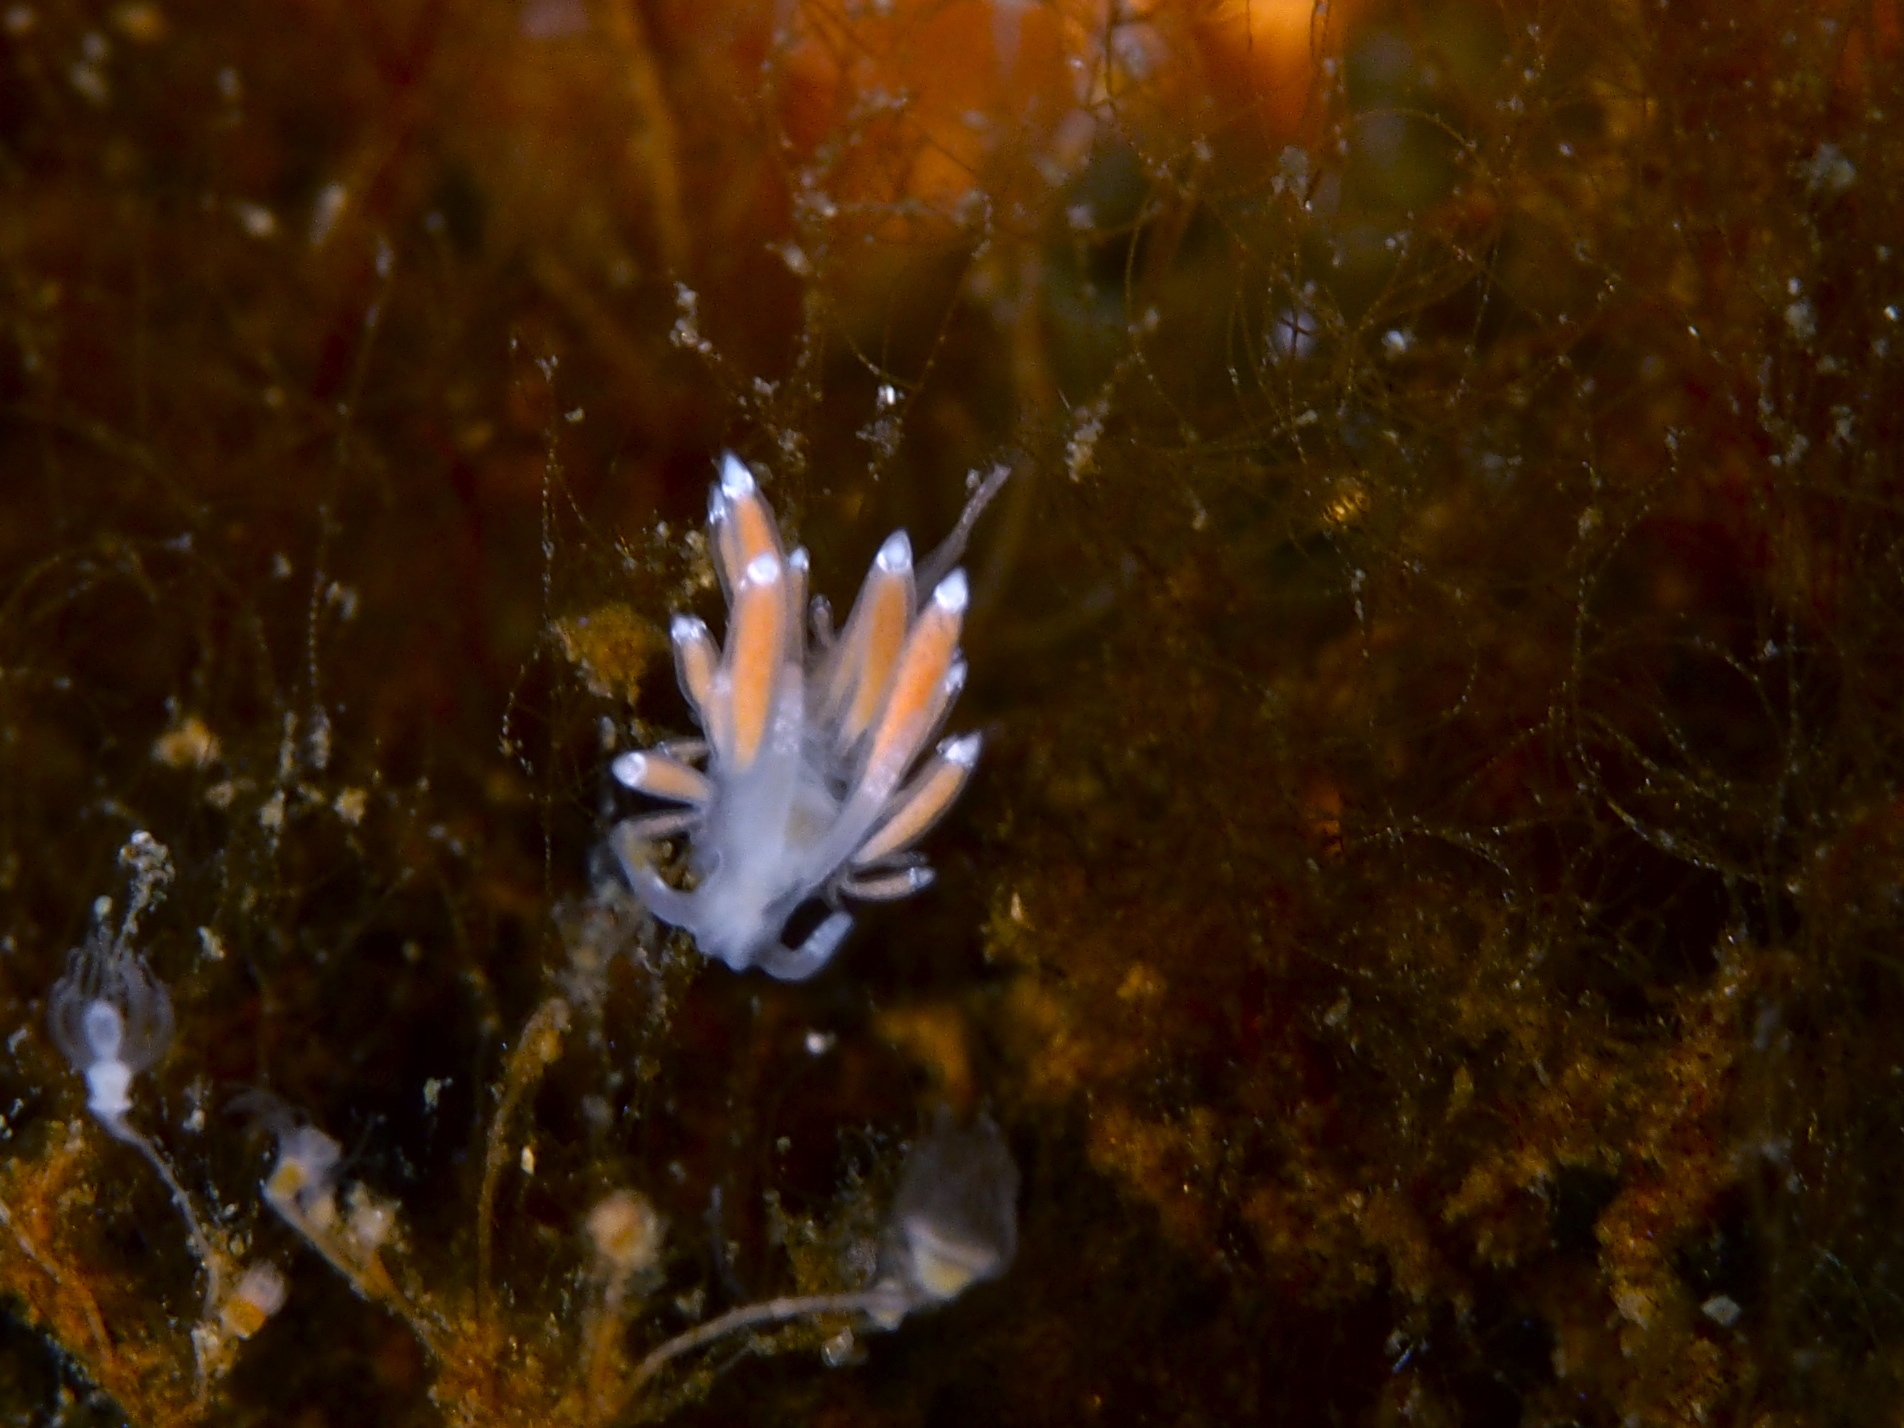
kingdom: Animalia
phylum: Mollusca
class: Gastropoda
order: Nudibranchia
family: Coryphellidae
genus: Coryphella
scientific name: Coryphella gracilis
